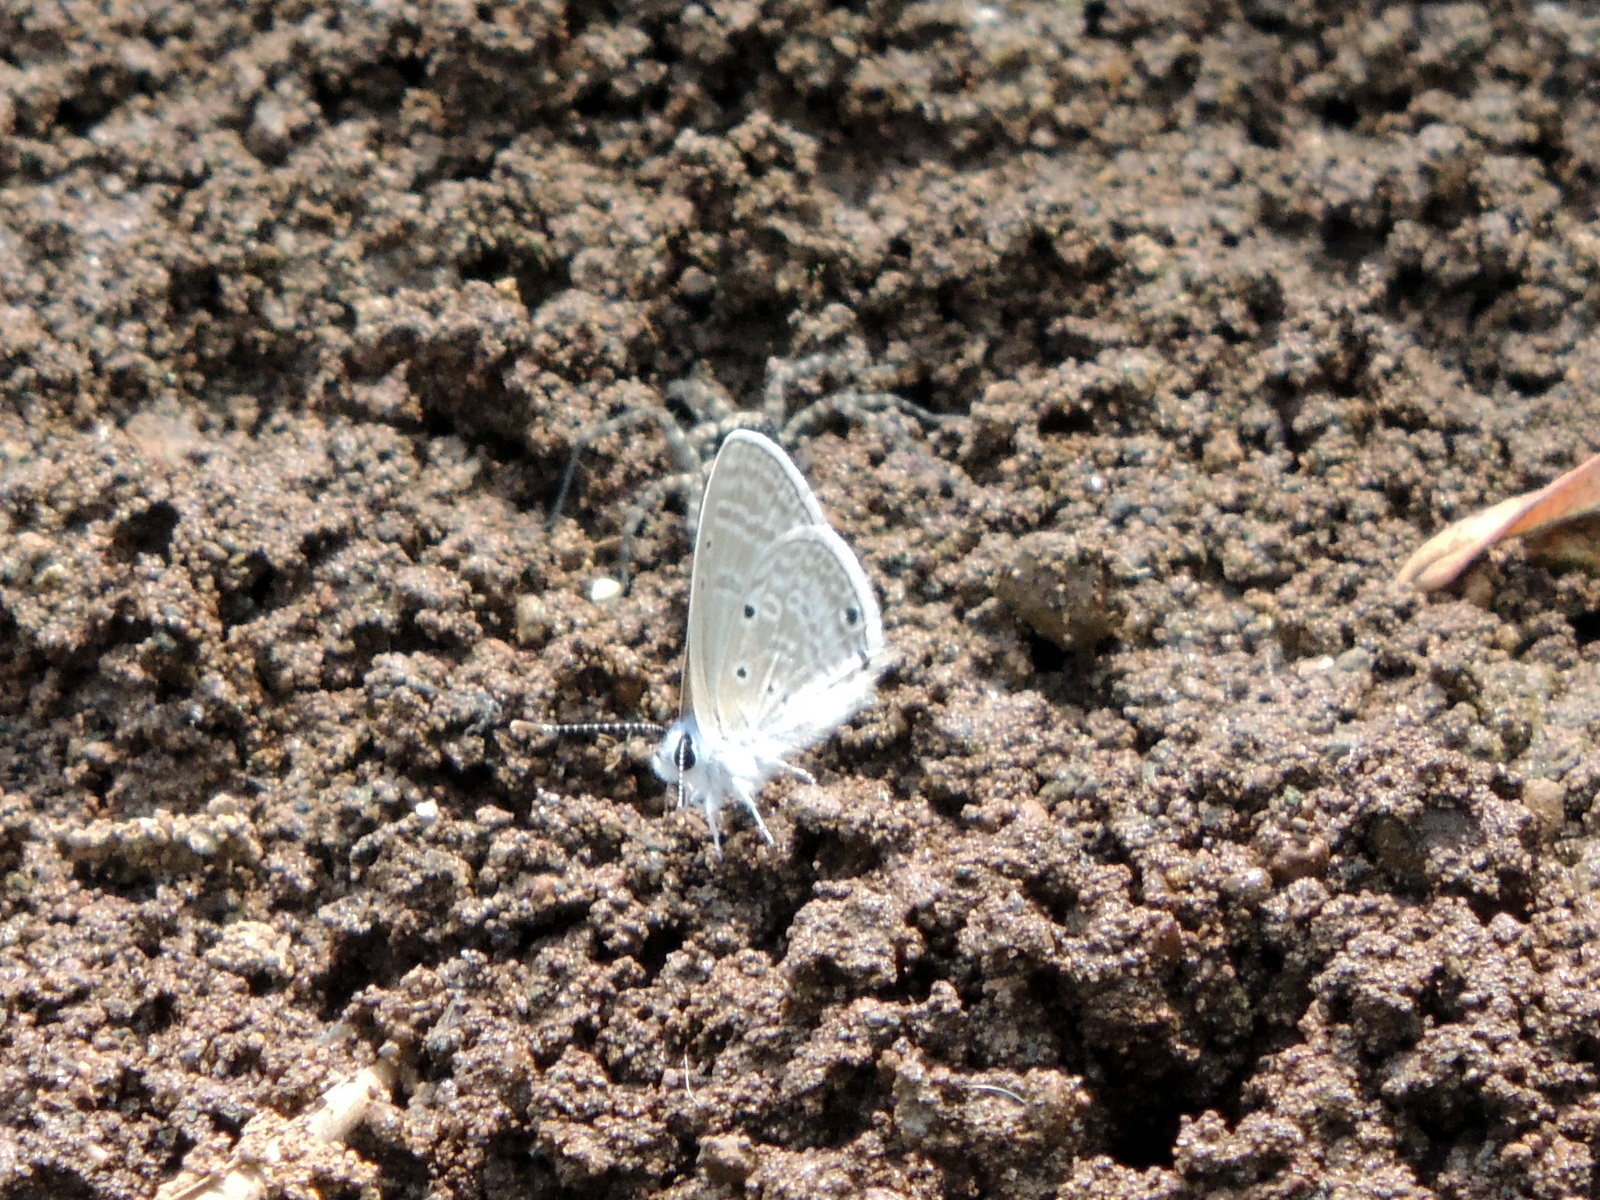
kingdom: Animalia
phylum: Arthropoda
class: Insecta
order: Lepidoptera
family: Lycaenidae
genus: Azanus
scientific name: Azanus ubaldus
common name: Desert babul blue
